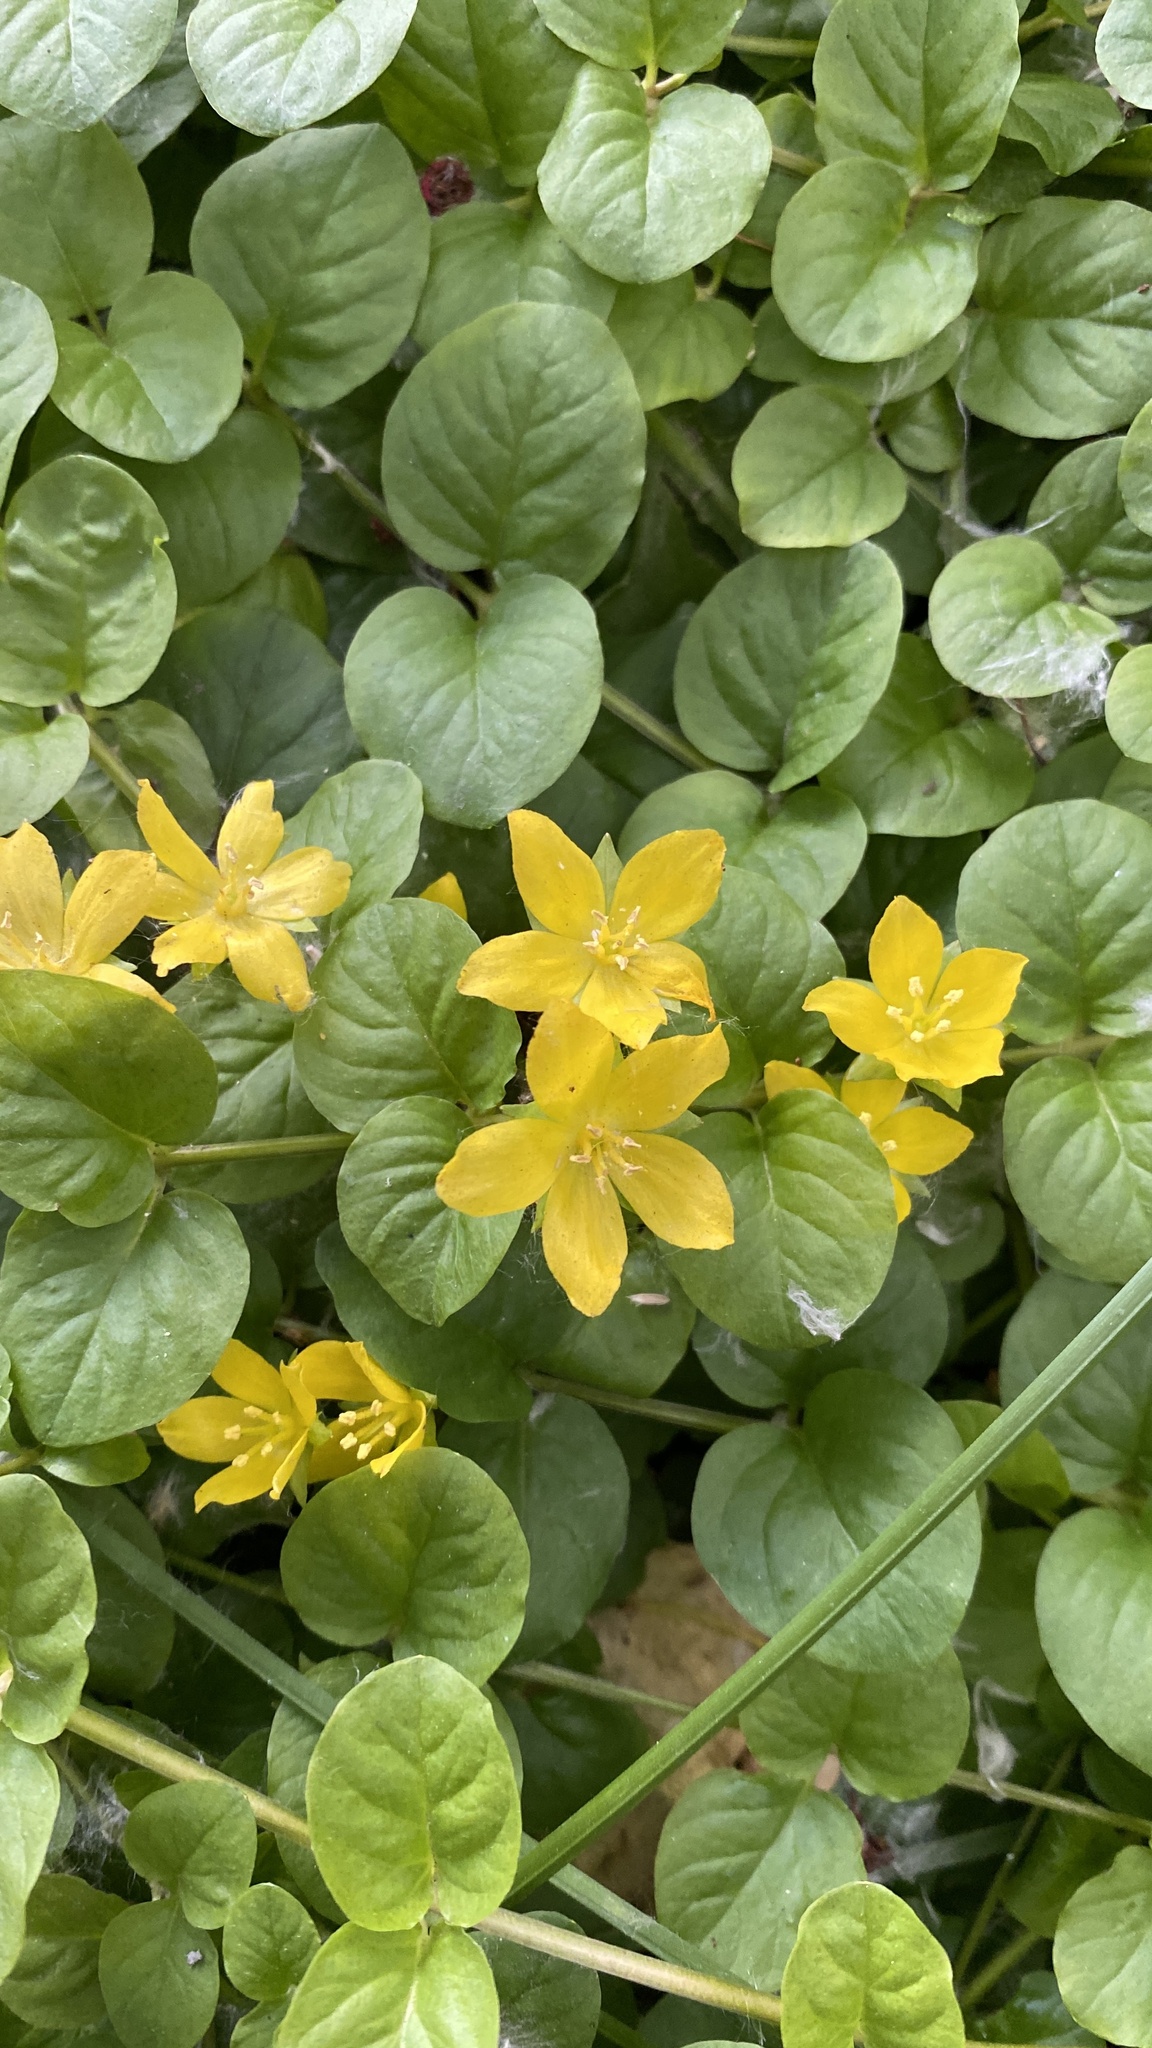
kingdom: Plantae
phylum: Tracheophyta
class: Magnoliopsida
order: Ericales
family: Primulaceae
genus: Lysimachia
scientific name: Lysimachia nummularia
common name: Moneywort
